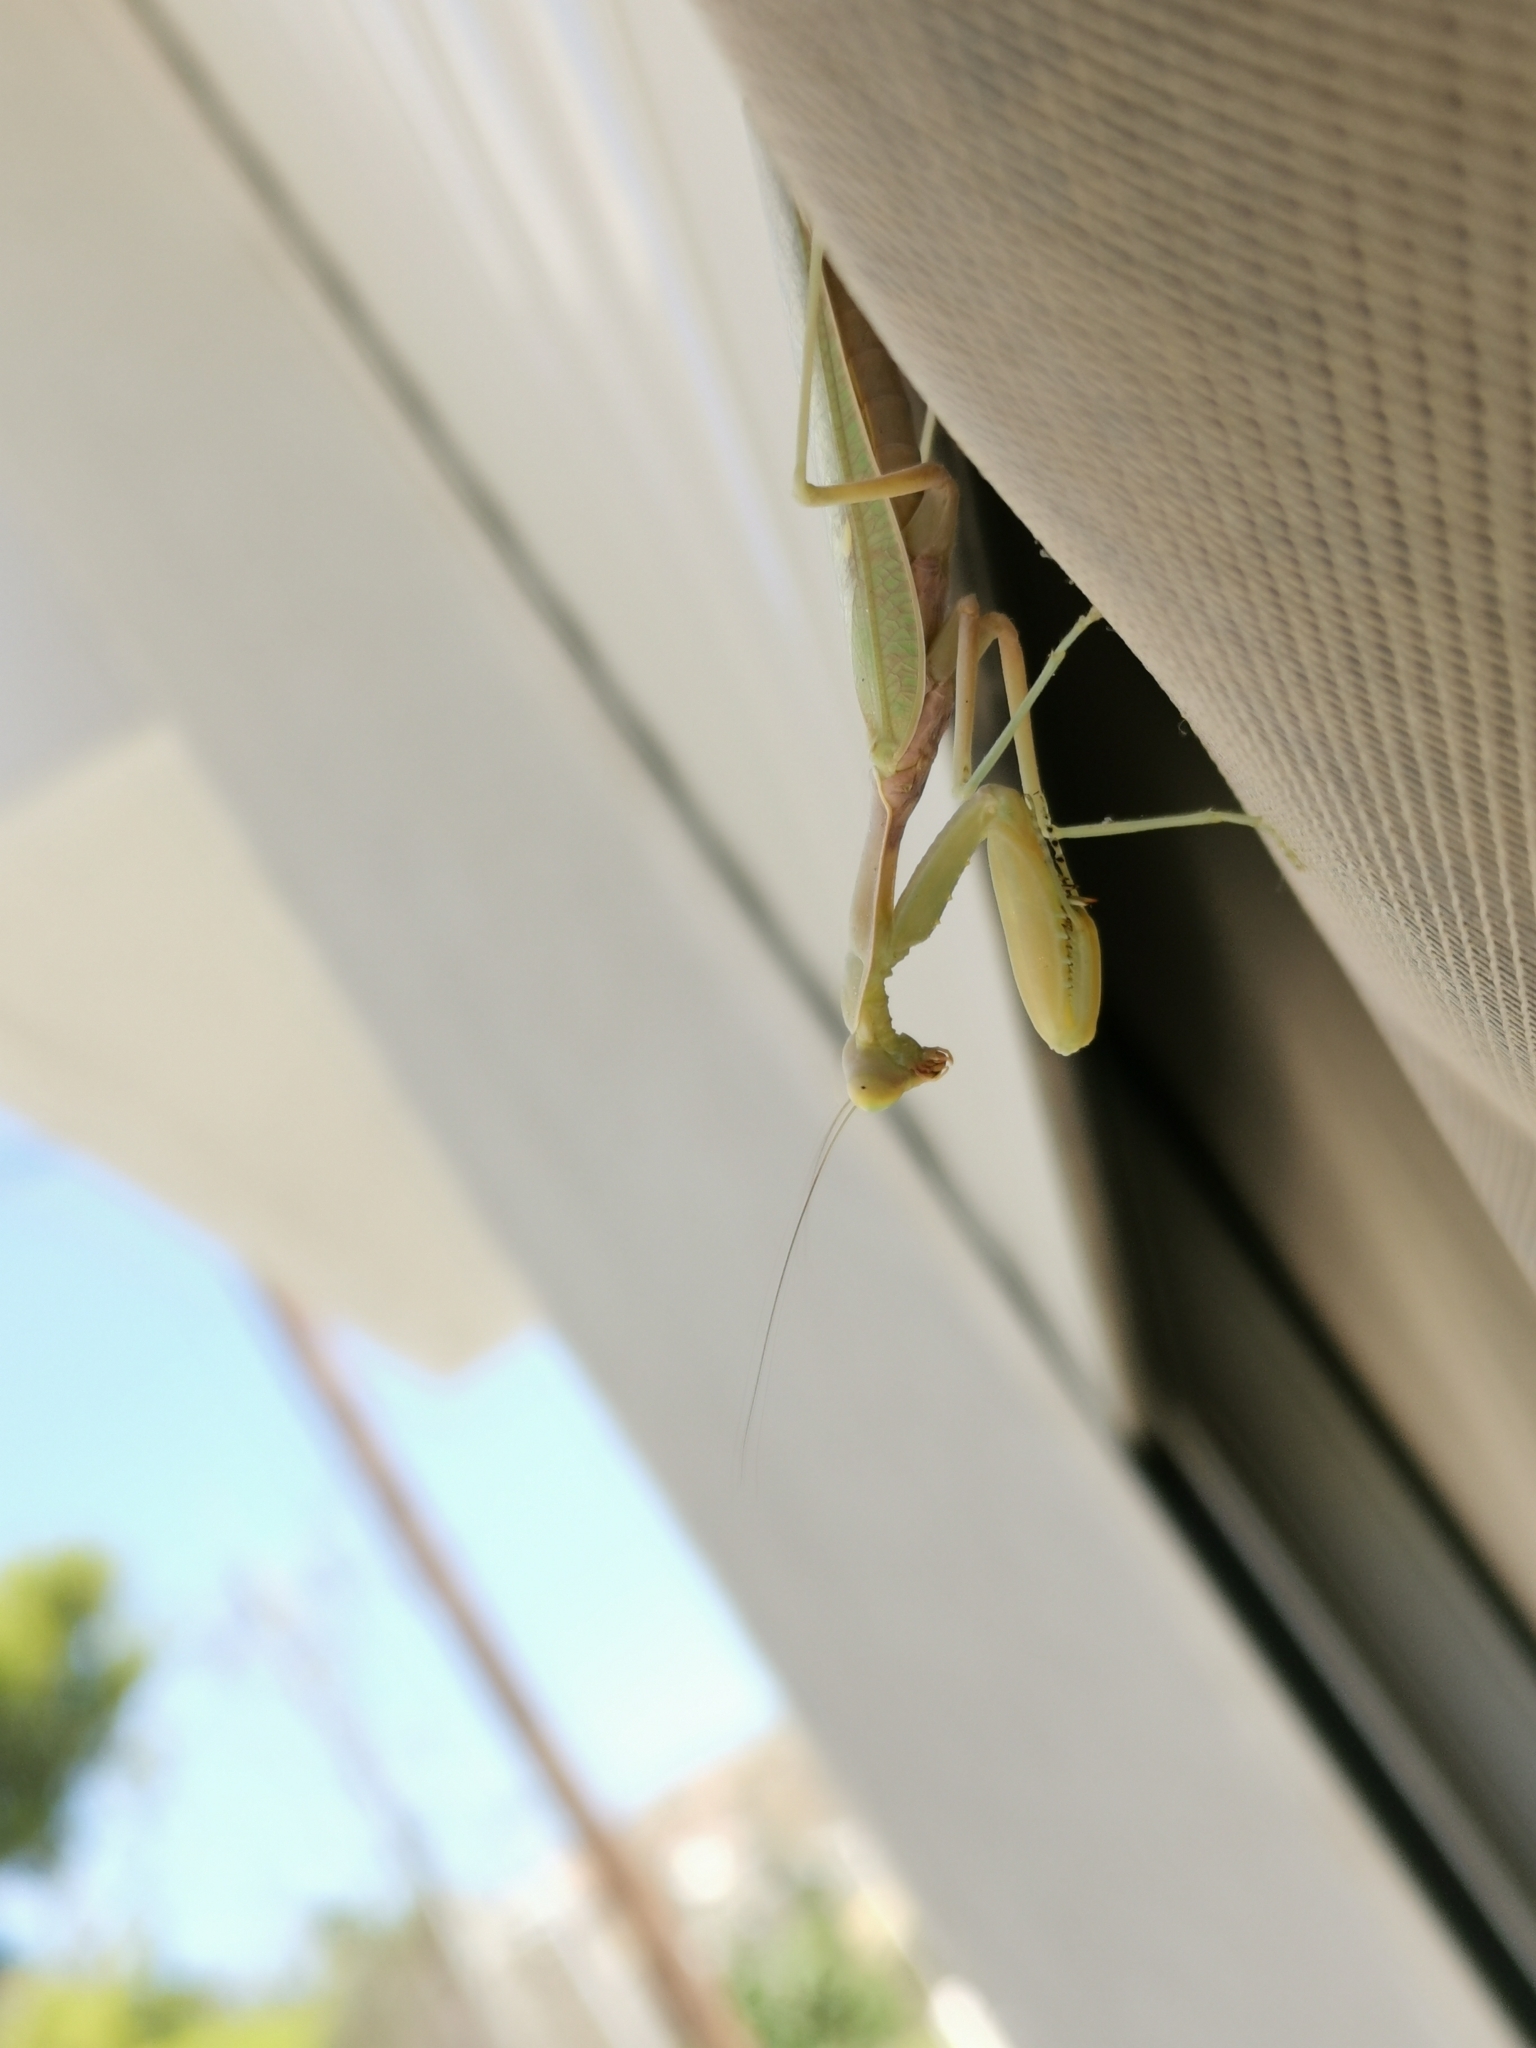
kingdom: Animalia
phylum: Arthropoda
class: Insecta
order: Mantodea
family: Mantidae
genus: Hierodula
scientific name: Hierodula transcaucasica
